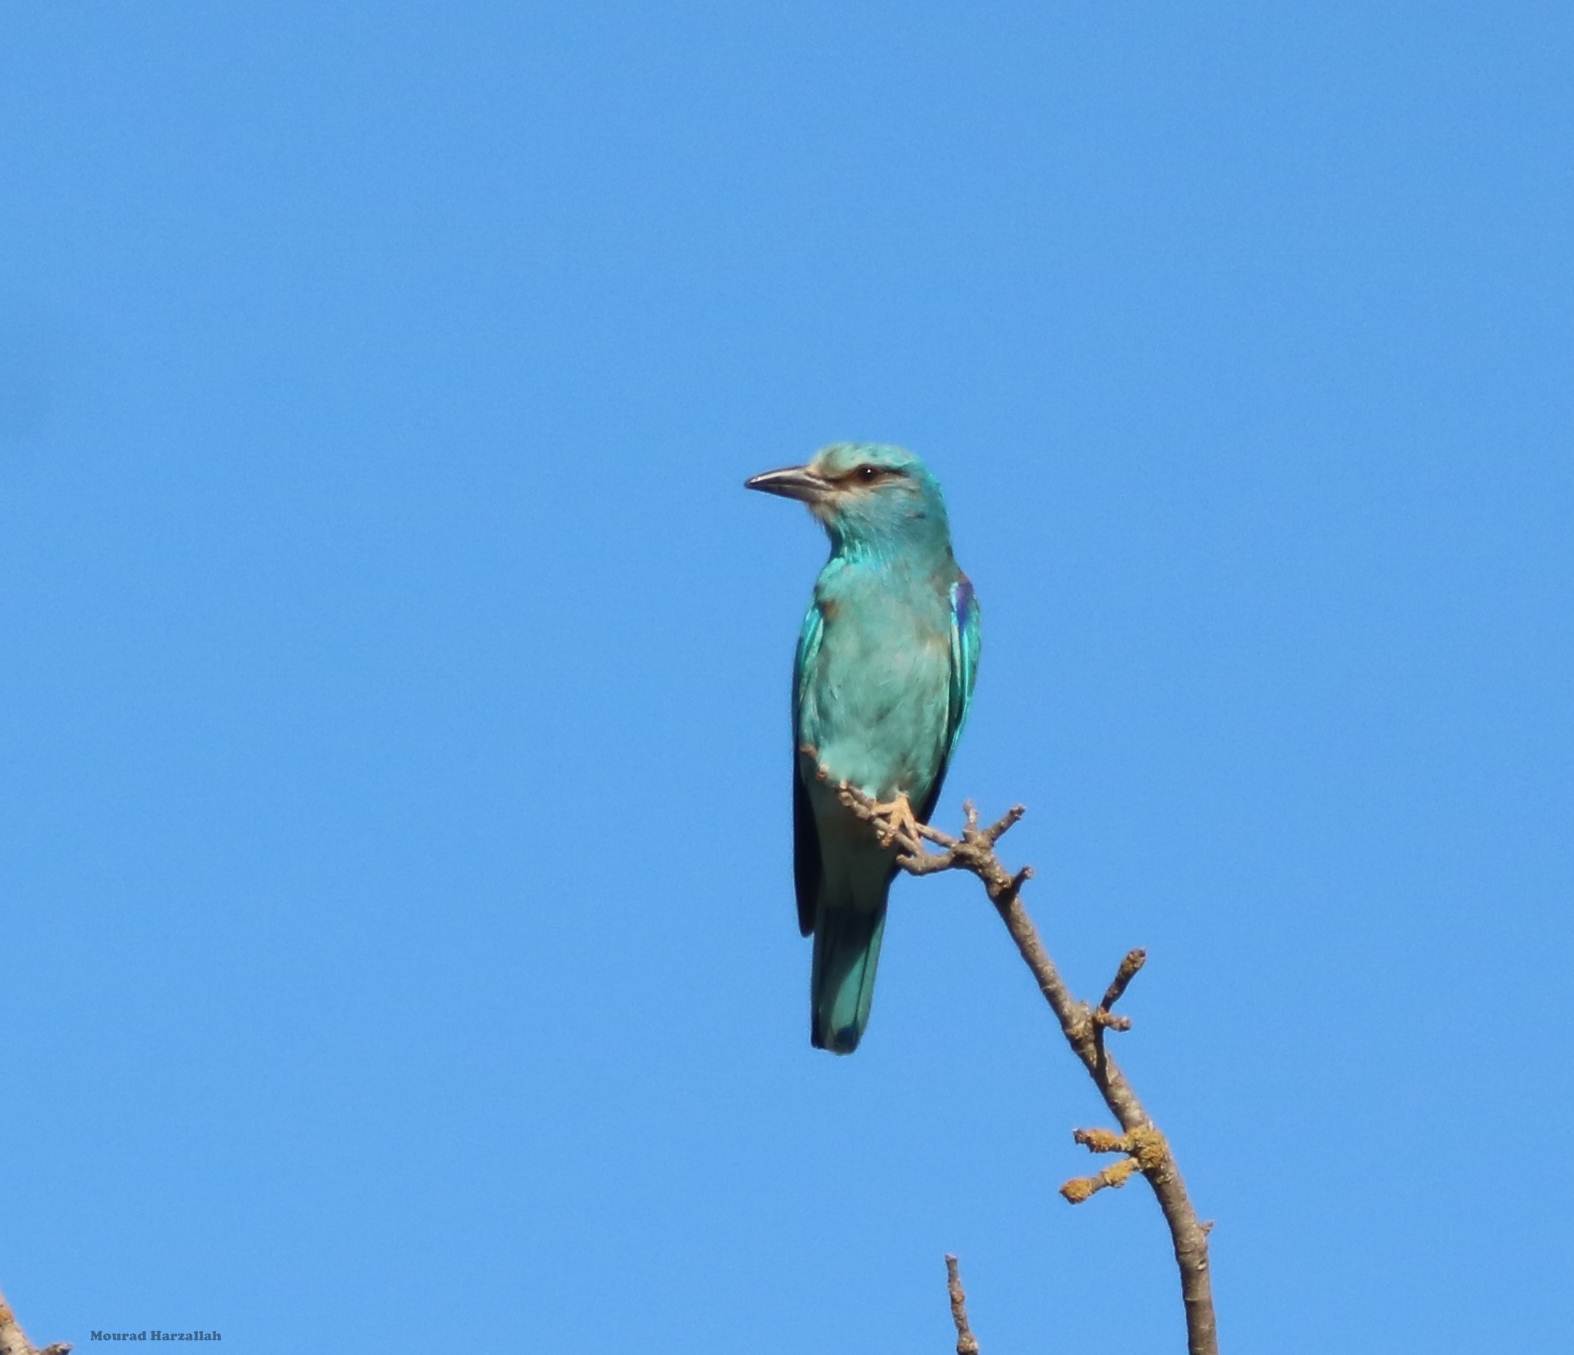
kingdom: Animalia
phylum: Chordata
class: Aves
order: Coraciiformes
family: Coraciidae
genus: Coracias
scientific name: Coracias garrulus
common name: European roller
